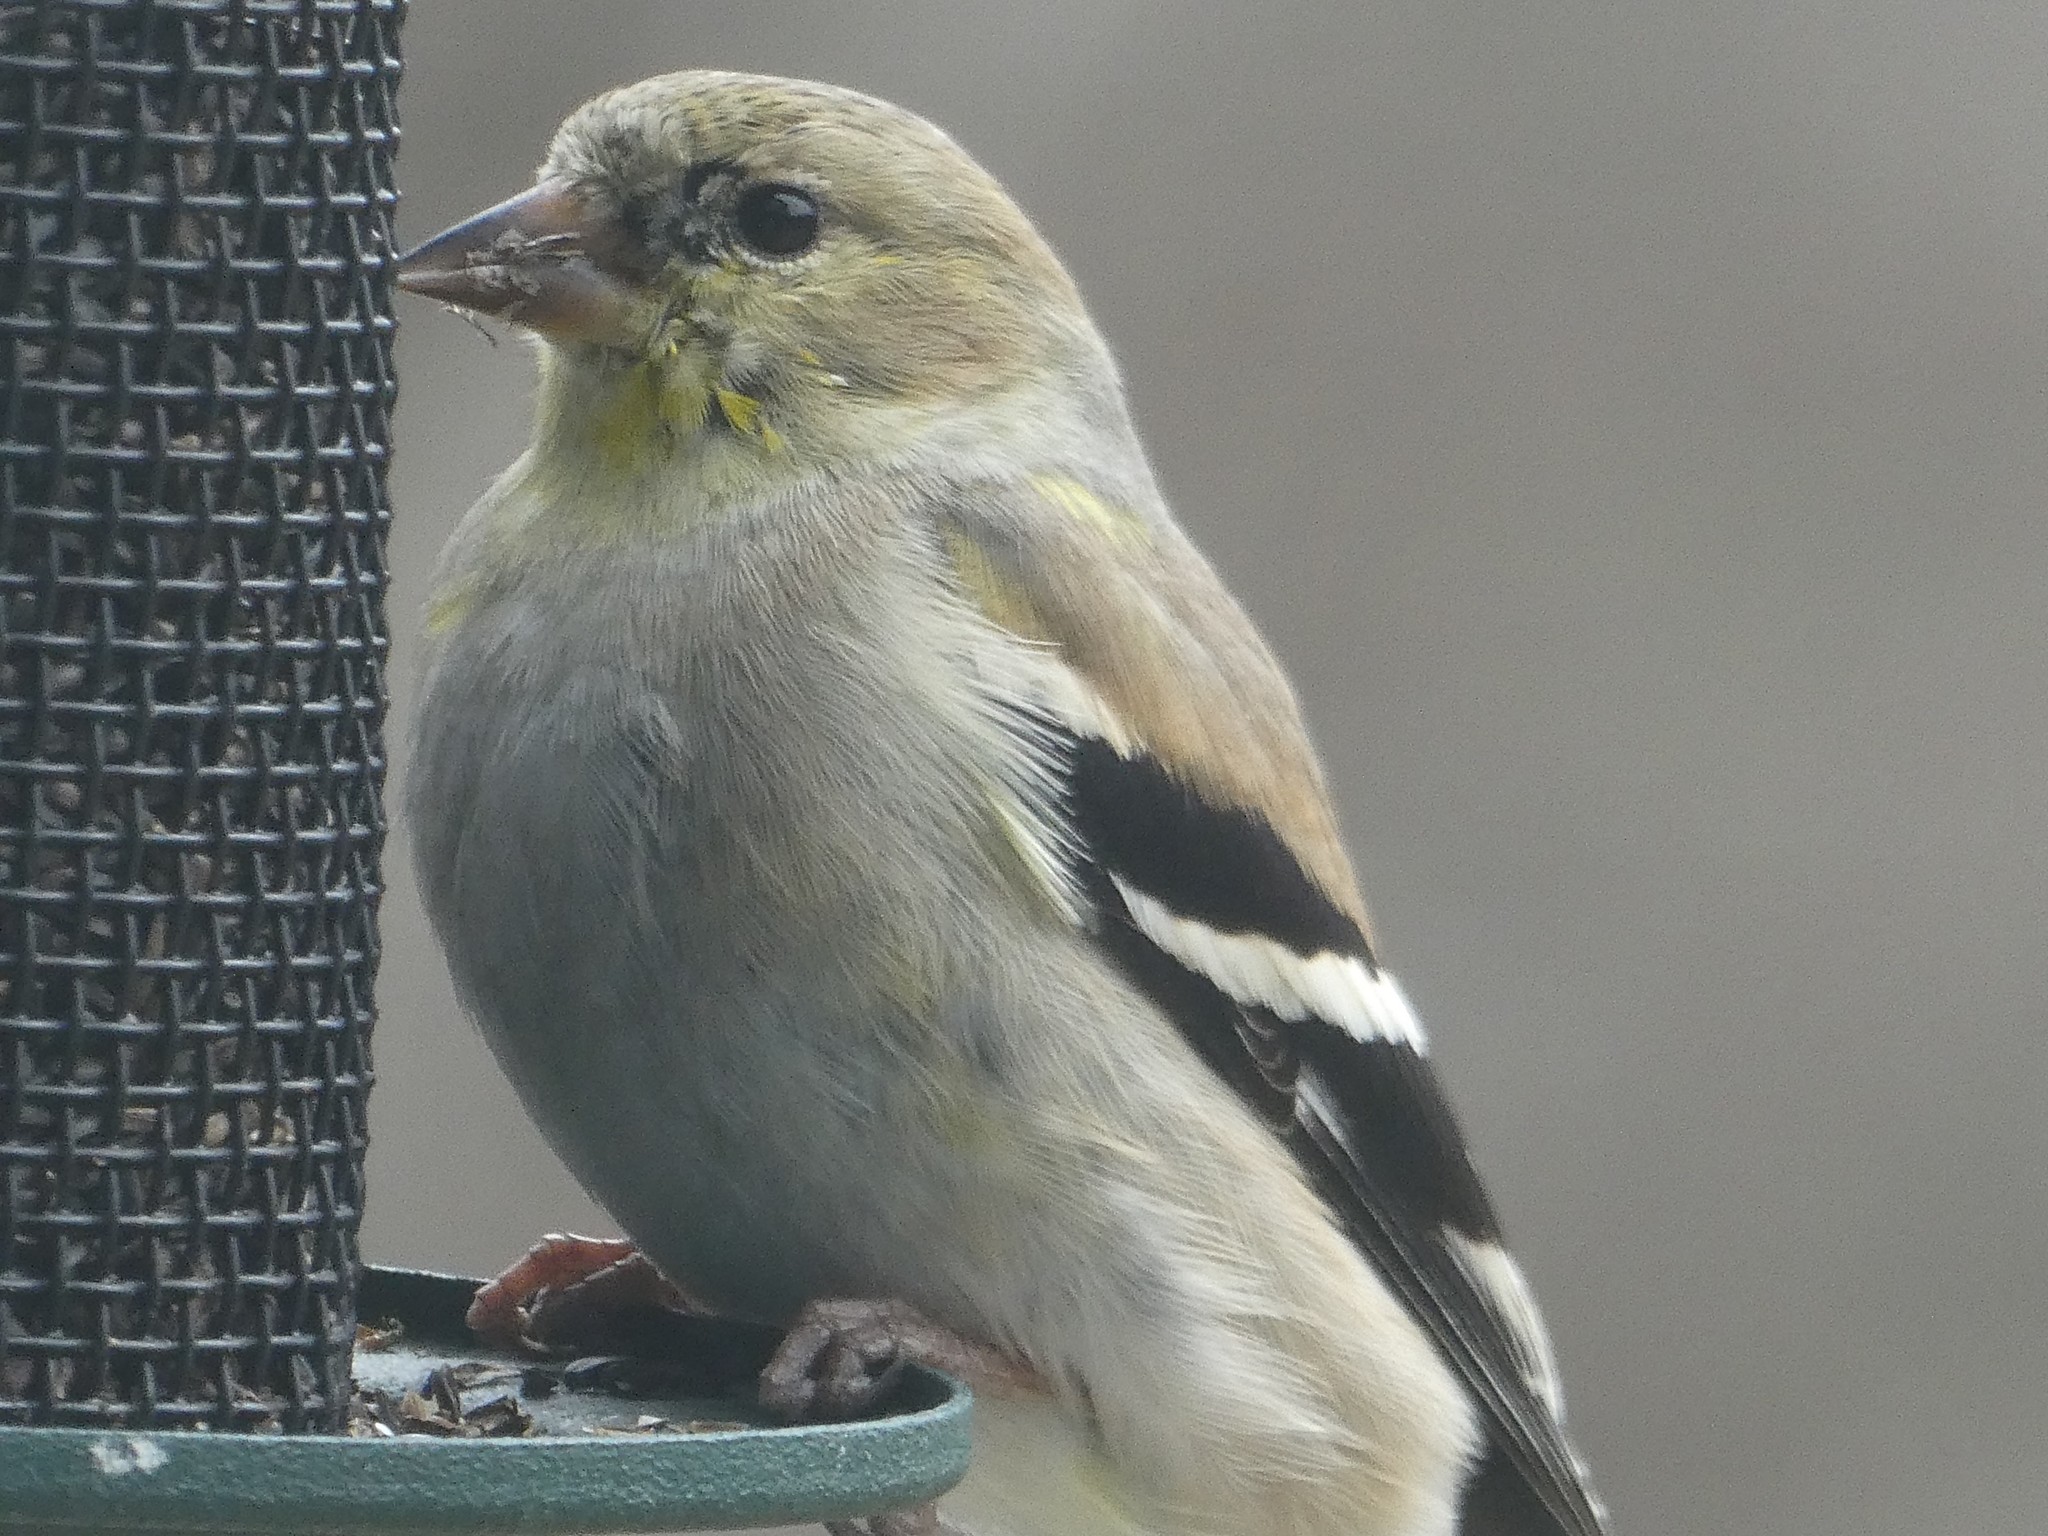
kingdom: Animalia
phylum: Chordata
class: Aves
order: Passeriformes
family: Fringillidae
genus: Spinus
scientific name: Spinus tristis
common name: American goldfinch
